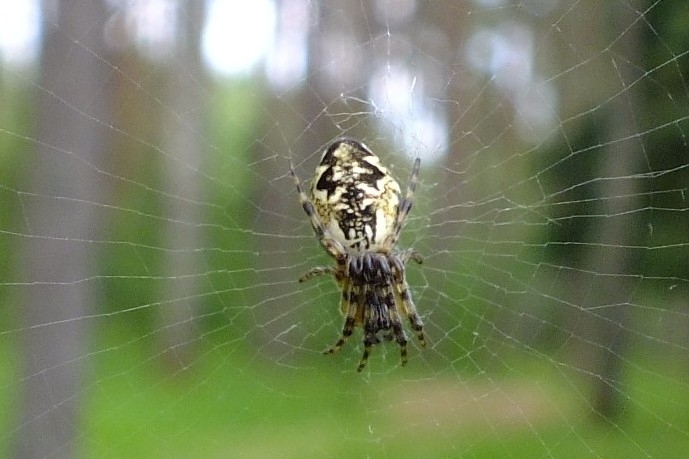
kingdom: Animalia
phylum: Arthropoda
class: Arachnida
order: Araneae
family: Araneidae
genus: Cyclosa
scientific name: Cyclosa conica
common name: Conical trashline orbweaver
